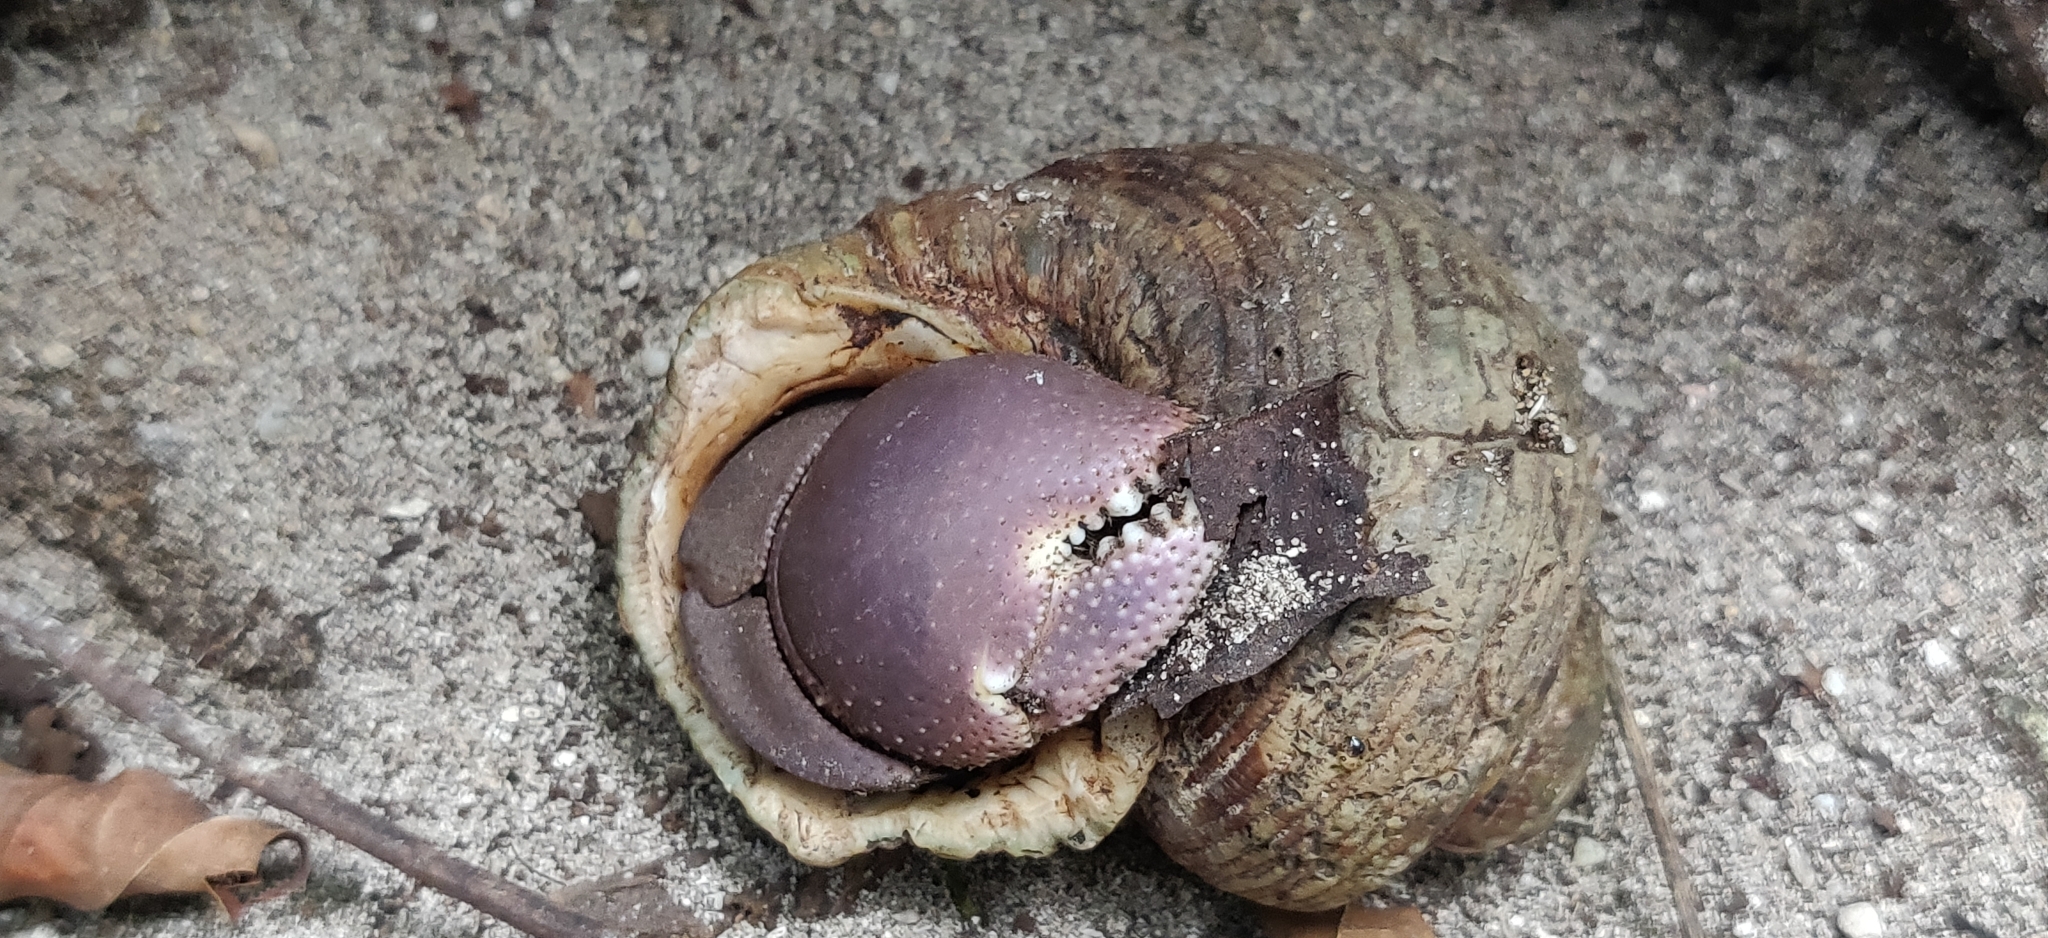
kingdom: Animalia
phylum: Arthropoda
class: Malacostraca
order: Decapoda
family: Coenobitidae
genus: Coenobita
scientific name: Coenobita brevimanus
